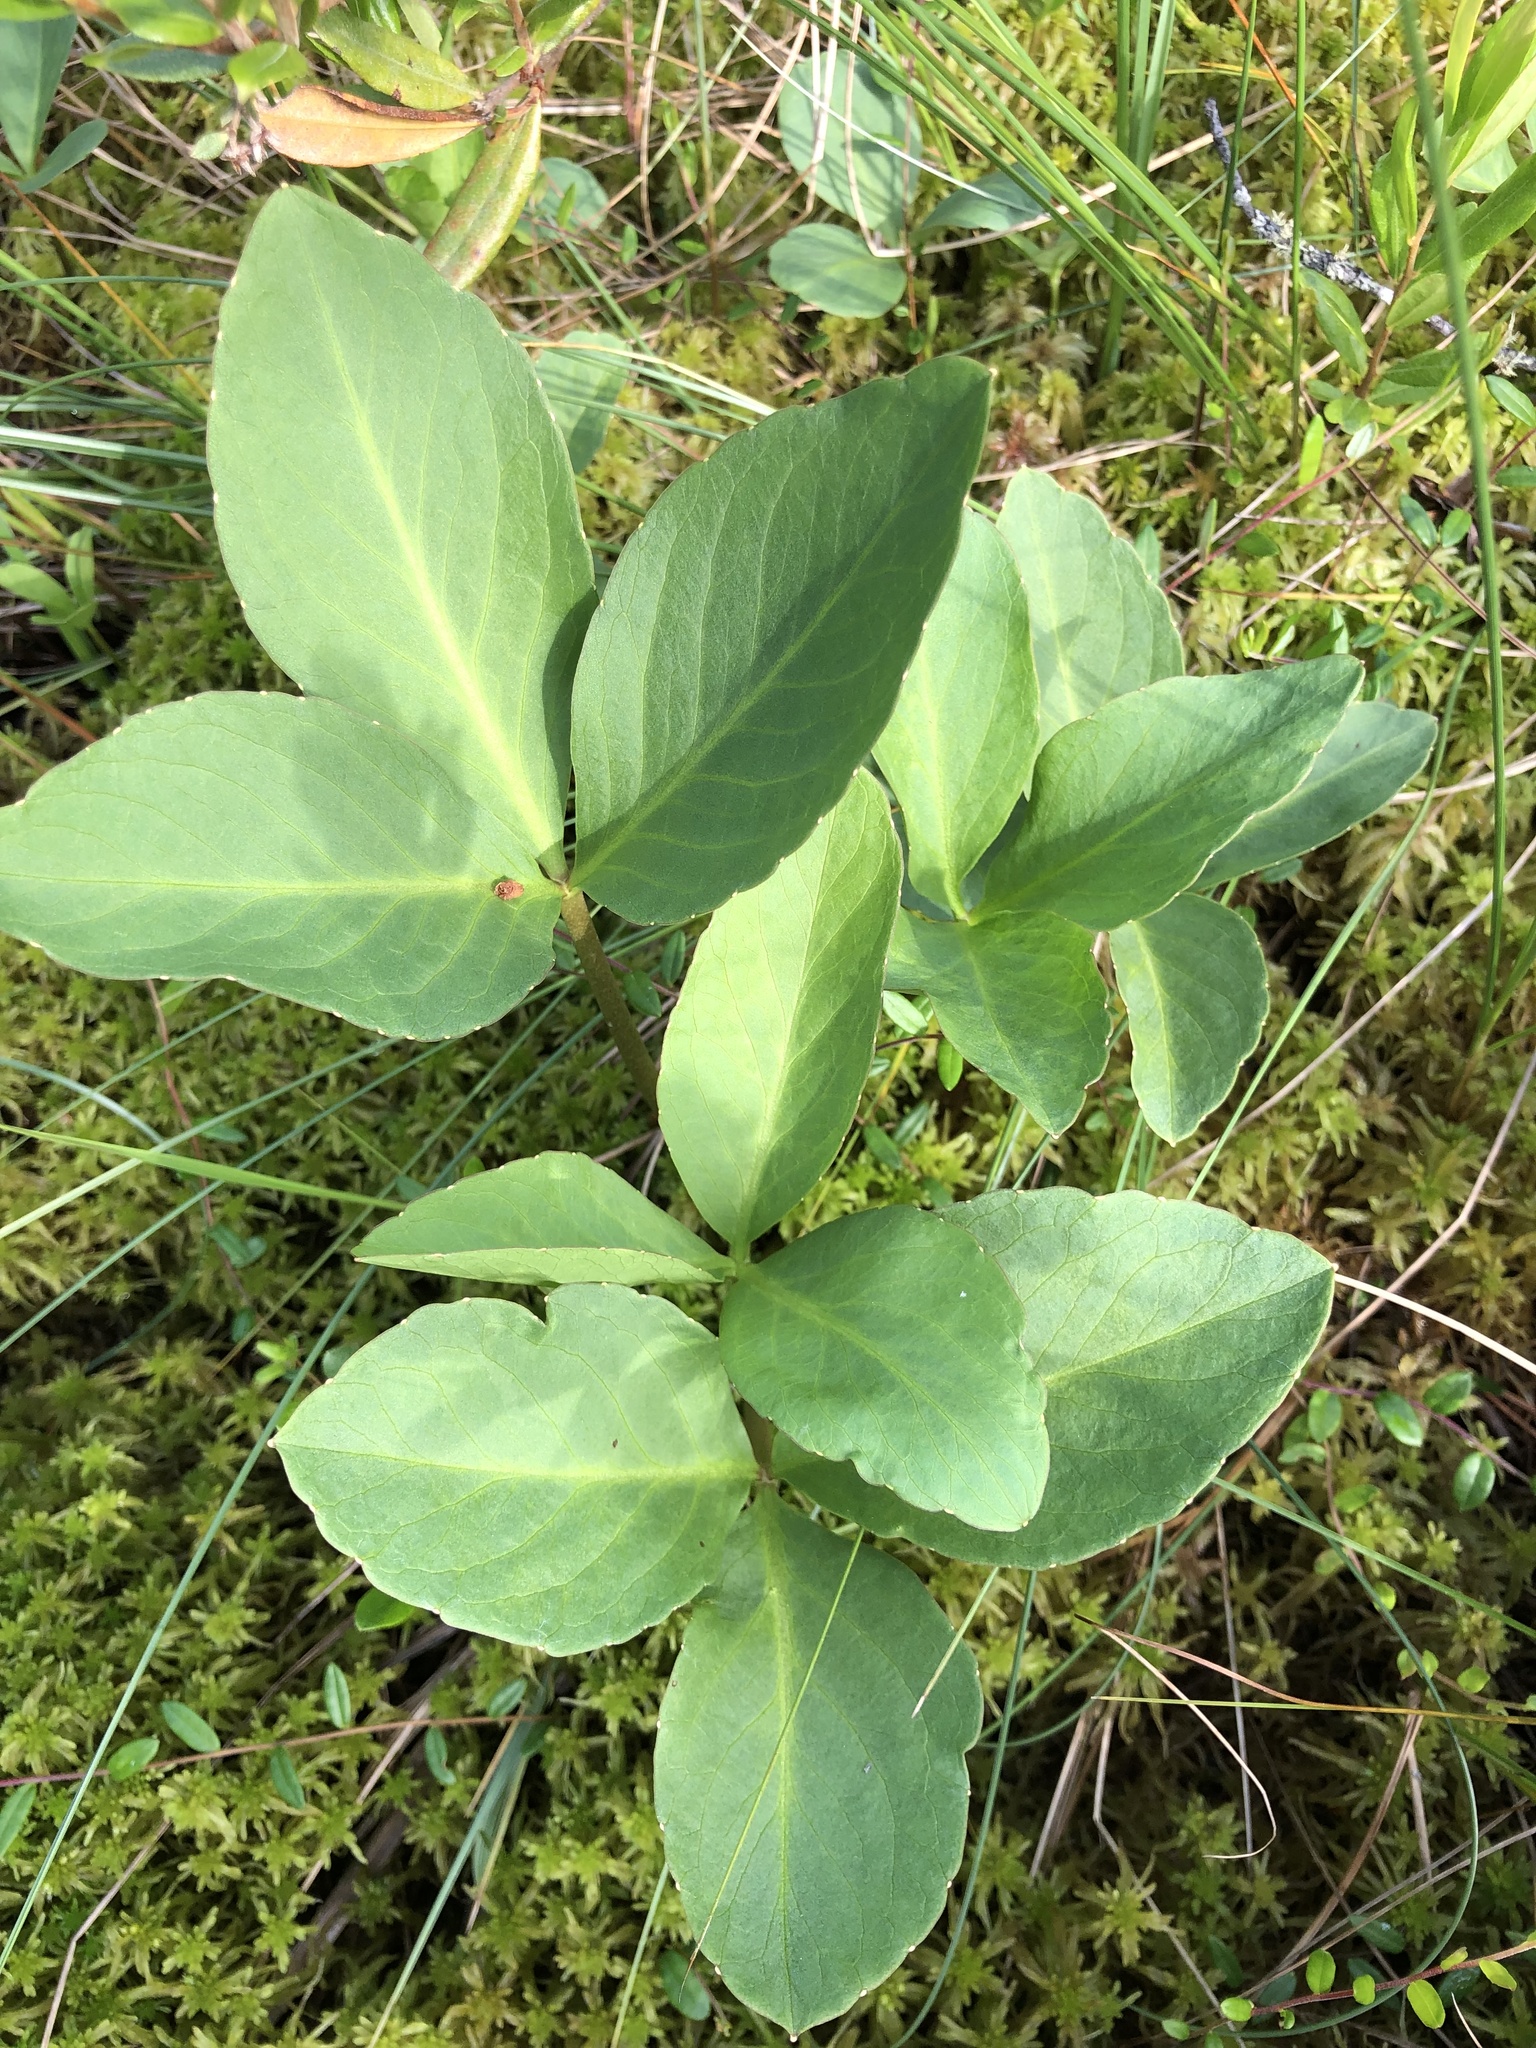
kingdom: Plantae
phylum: Tracheophyta
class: Magnoliopsida
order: Asterales
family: Menyanthaceae
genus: Menyanthes
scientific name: Menyanthes trifoliata
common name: Bogbean
